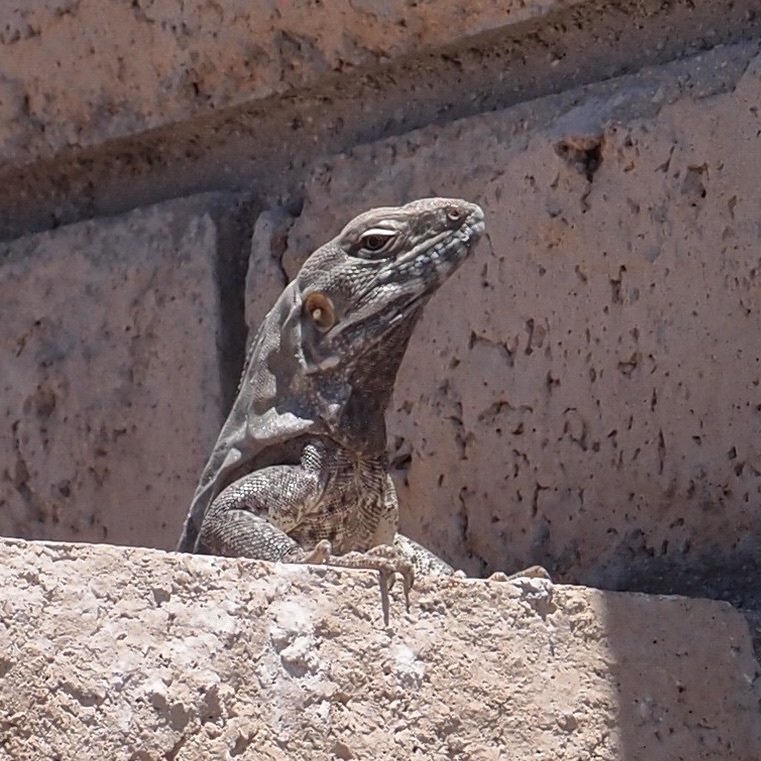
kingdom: Animalia
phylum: Chordata
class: Squamata
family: Iguanidae
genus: Ctenosaura
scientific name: Ctenosaura macrolopha
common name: Cape spinytail iguana
